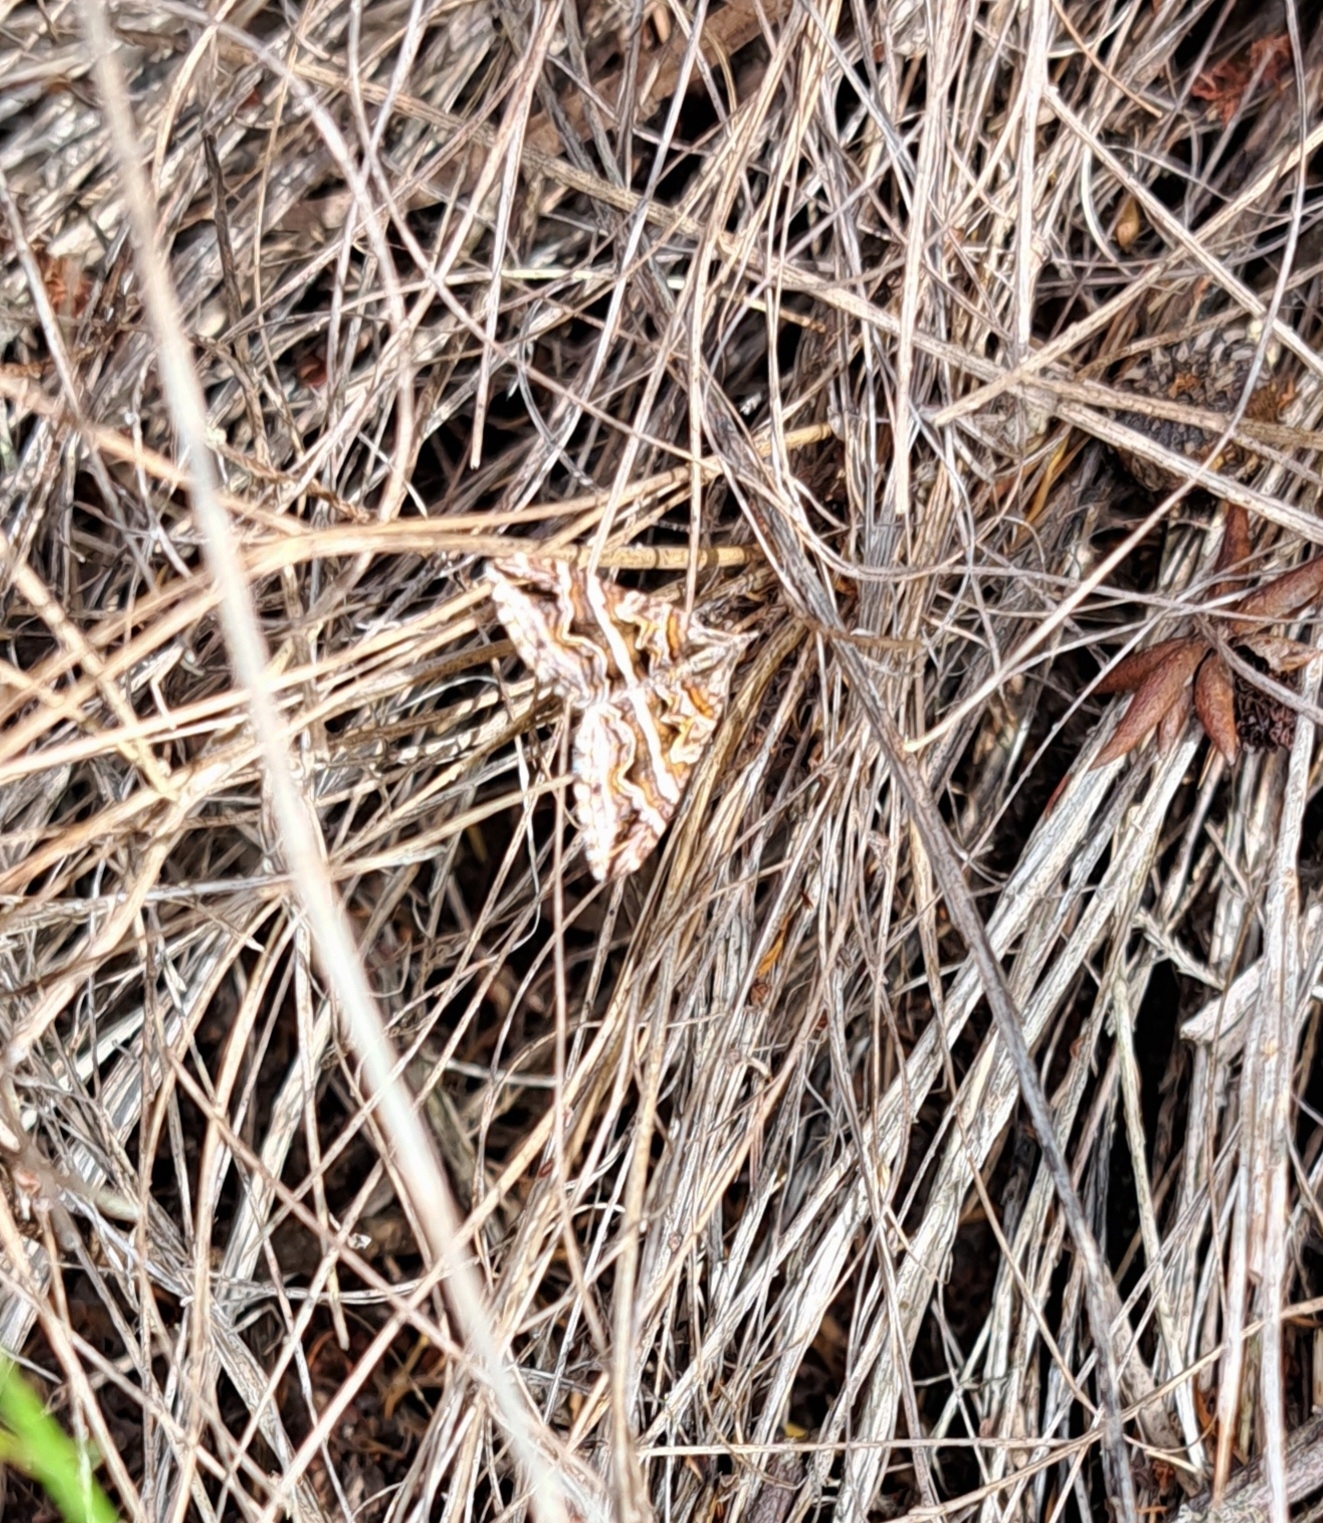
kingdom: Animalia
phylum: Arthropoda
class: Insecta
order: Lepidoptera
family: Geometridae
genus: Scotopteryx
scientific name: Scotopteryx deversa
